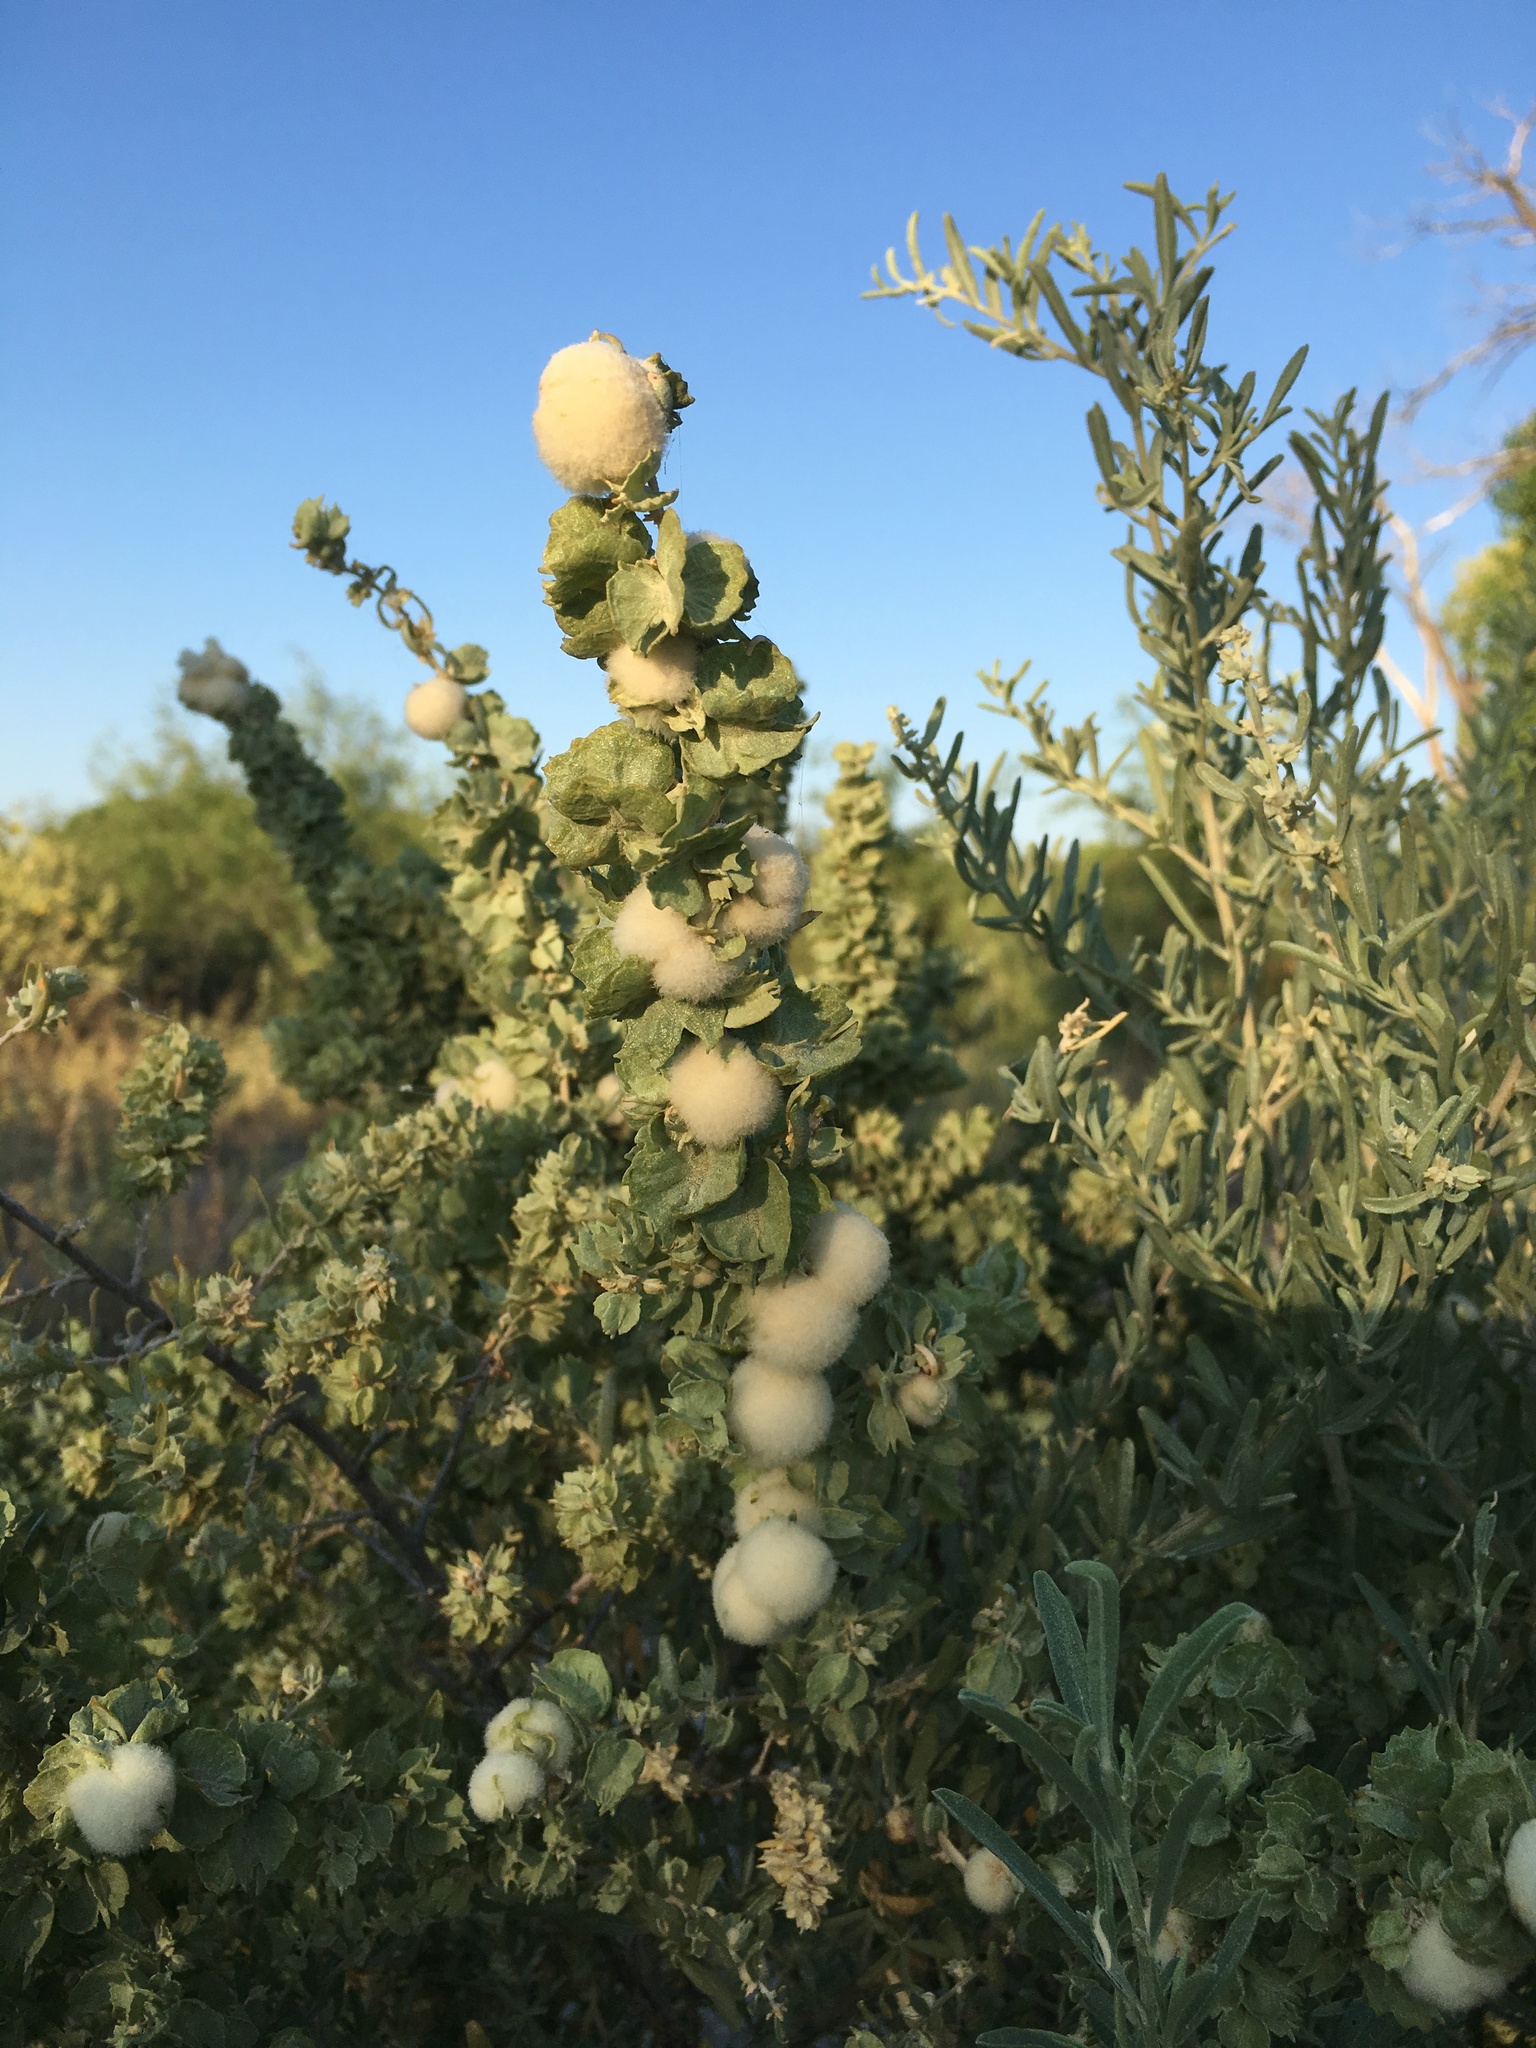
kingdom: Animalia
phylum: Arthropoda
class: Insecta
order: Diptera
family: Cecidomyiidae
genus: Asphondylia
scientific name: Asphondylia neomexicana
